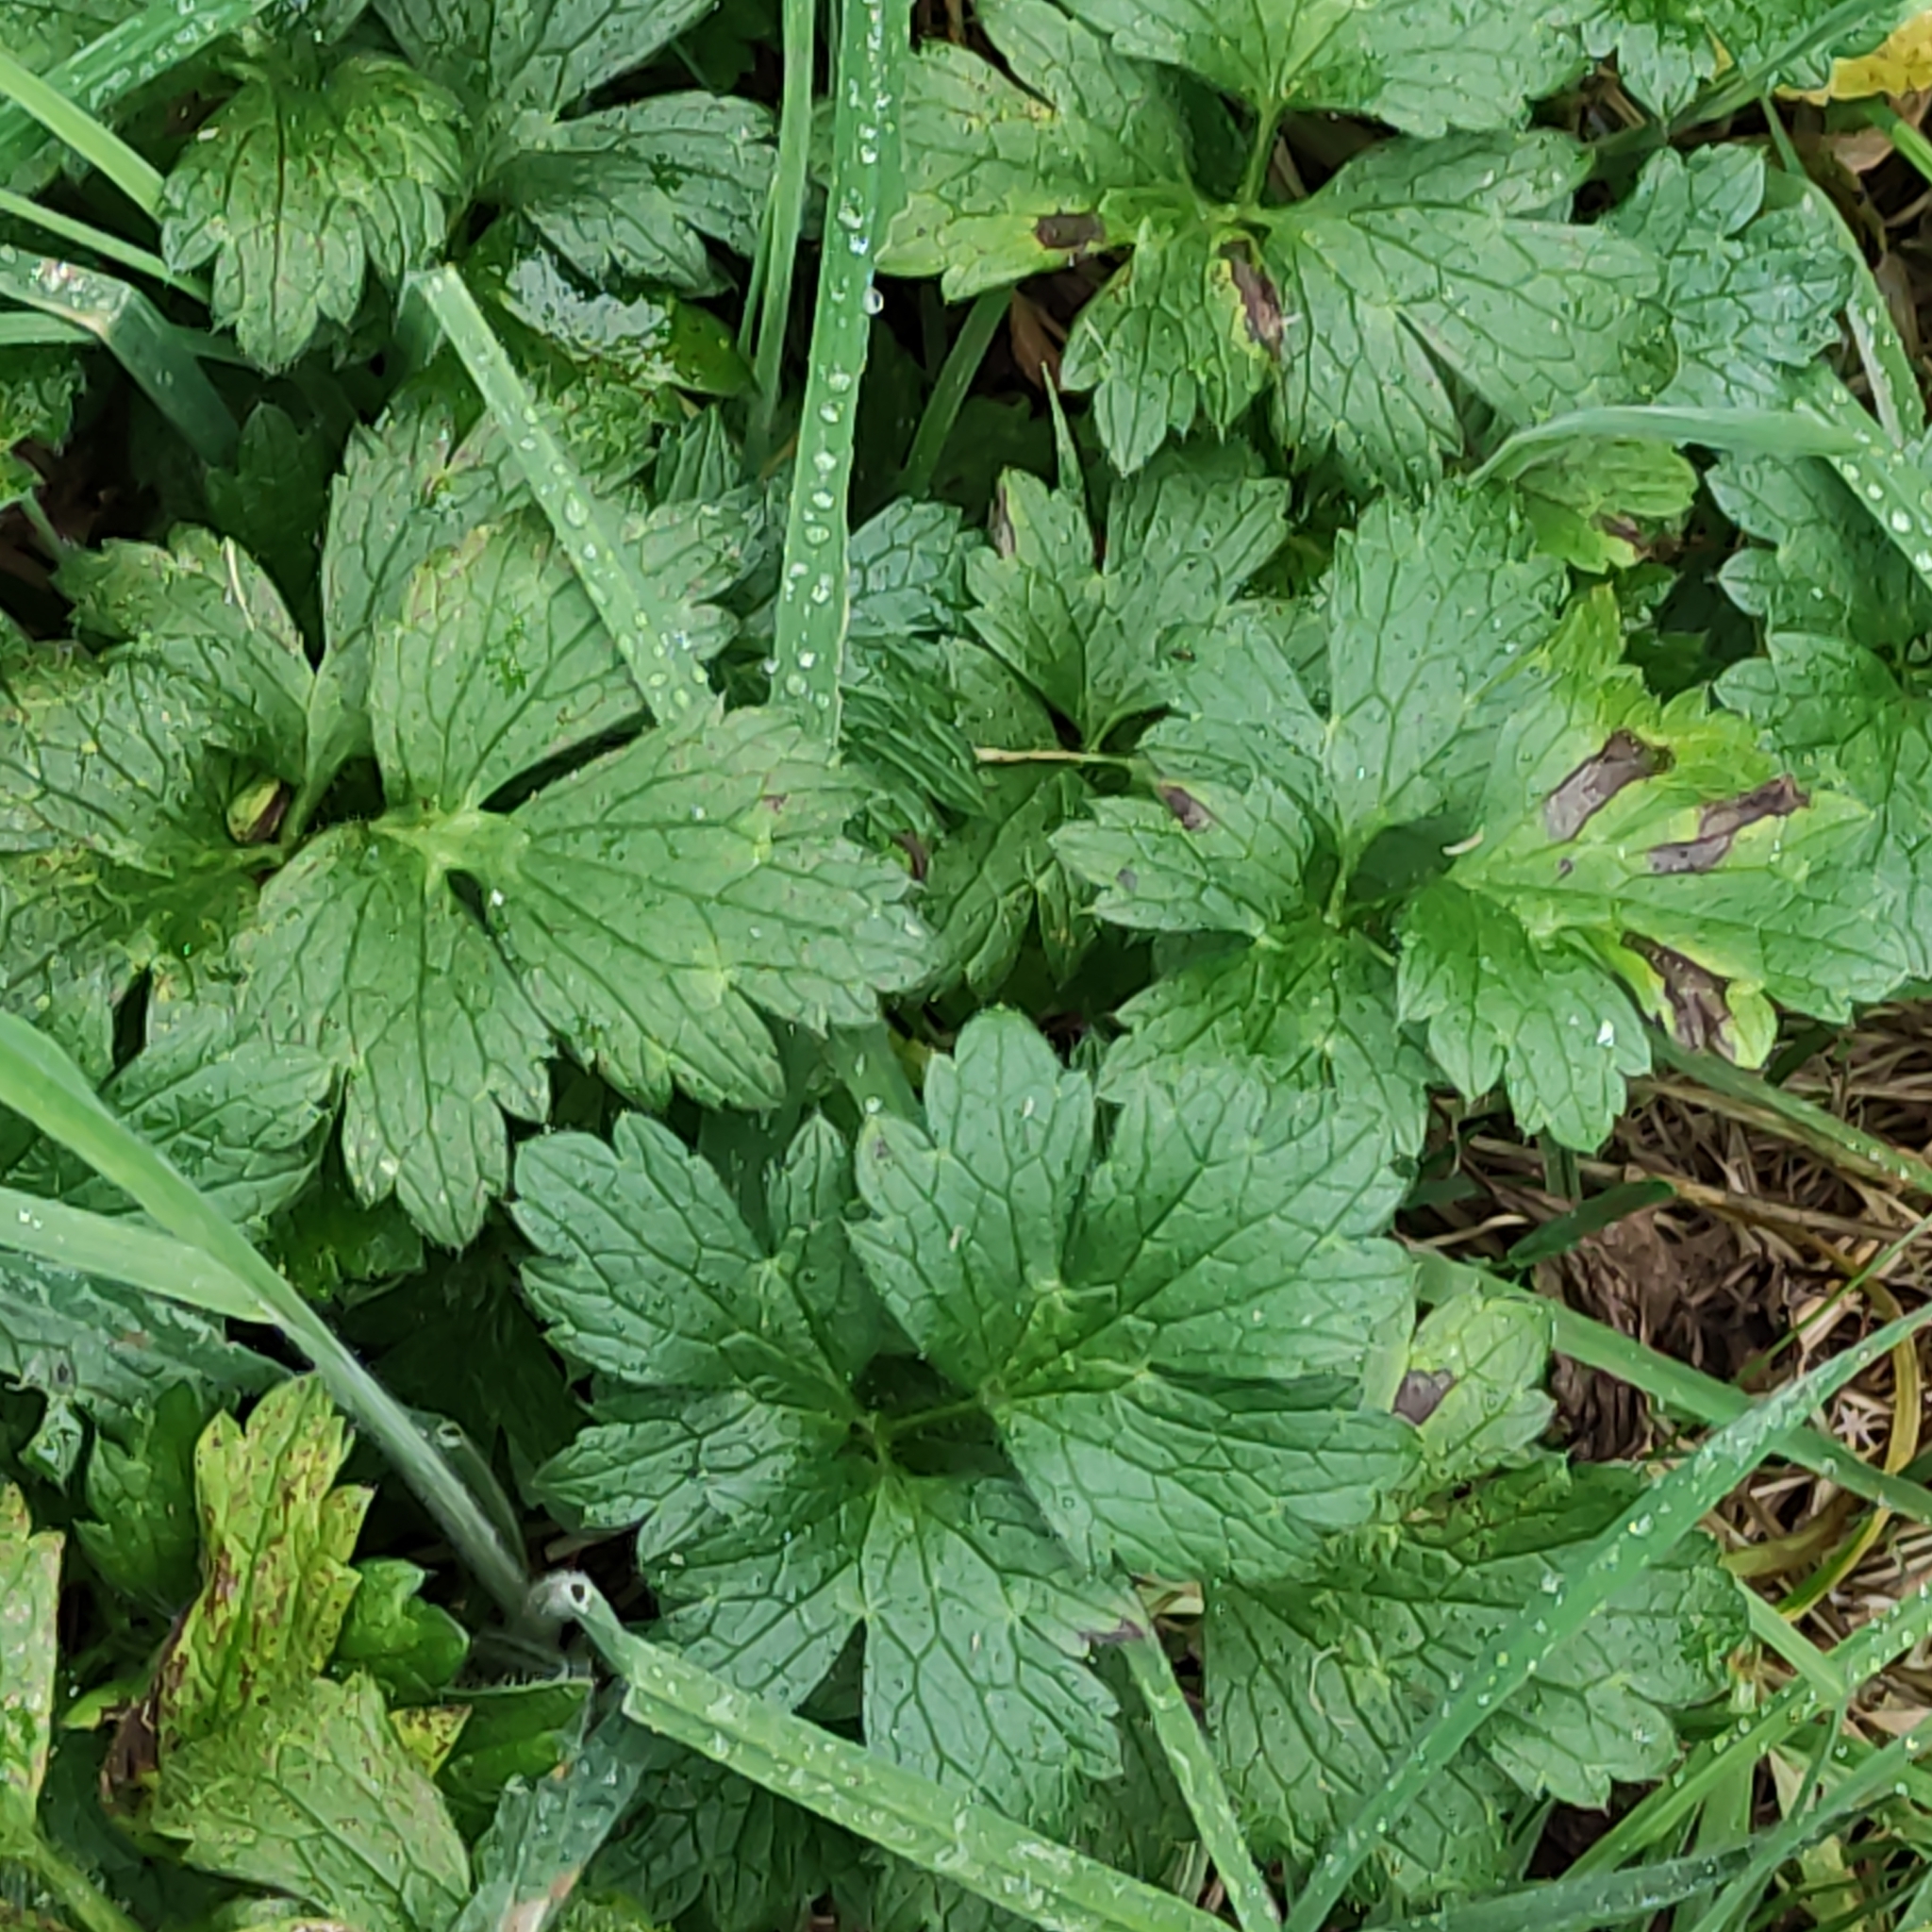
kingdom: Plantae
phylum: Tracheophyta
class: Magnoliopsida
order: Ranunculales
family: Ranunculaceae
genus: Ranunculus
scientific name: Ranunculus repens
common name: Creeping buttercup
